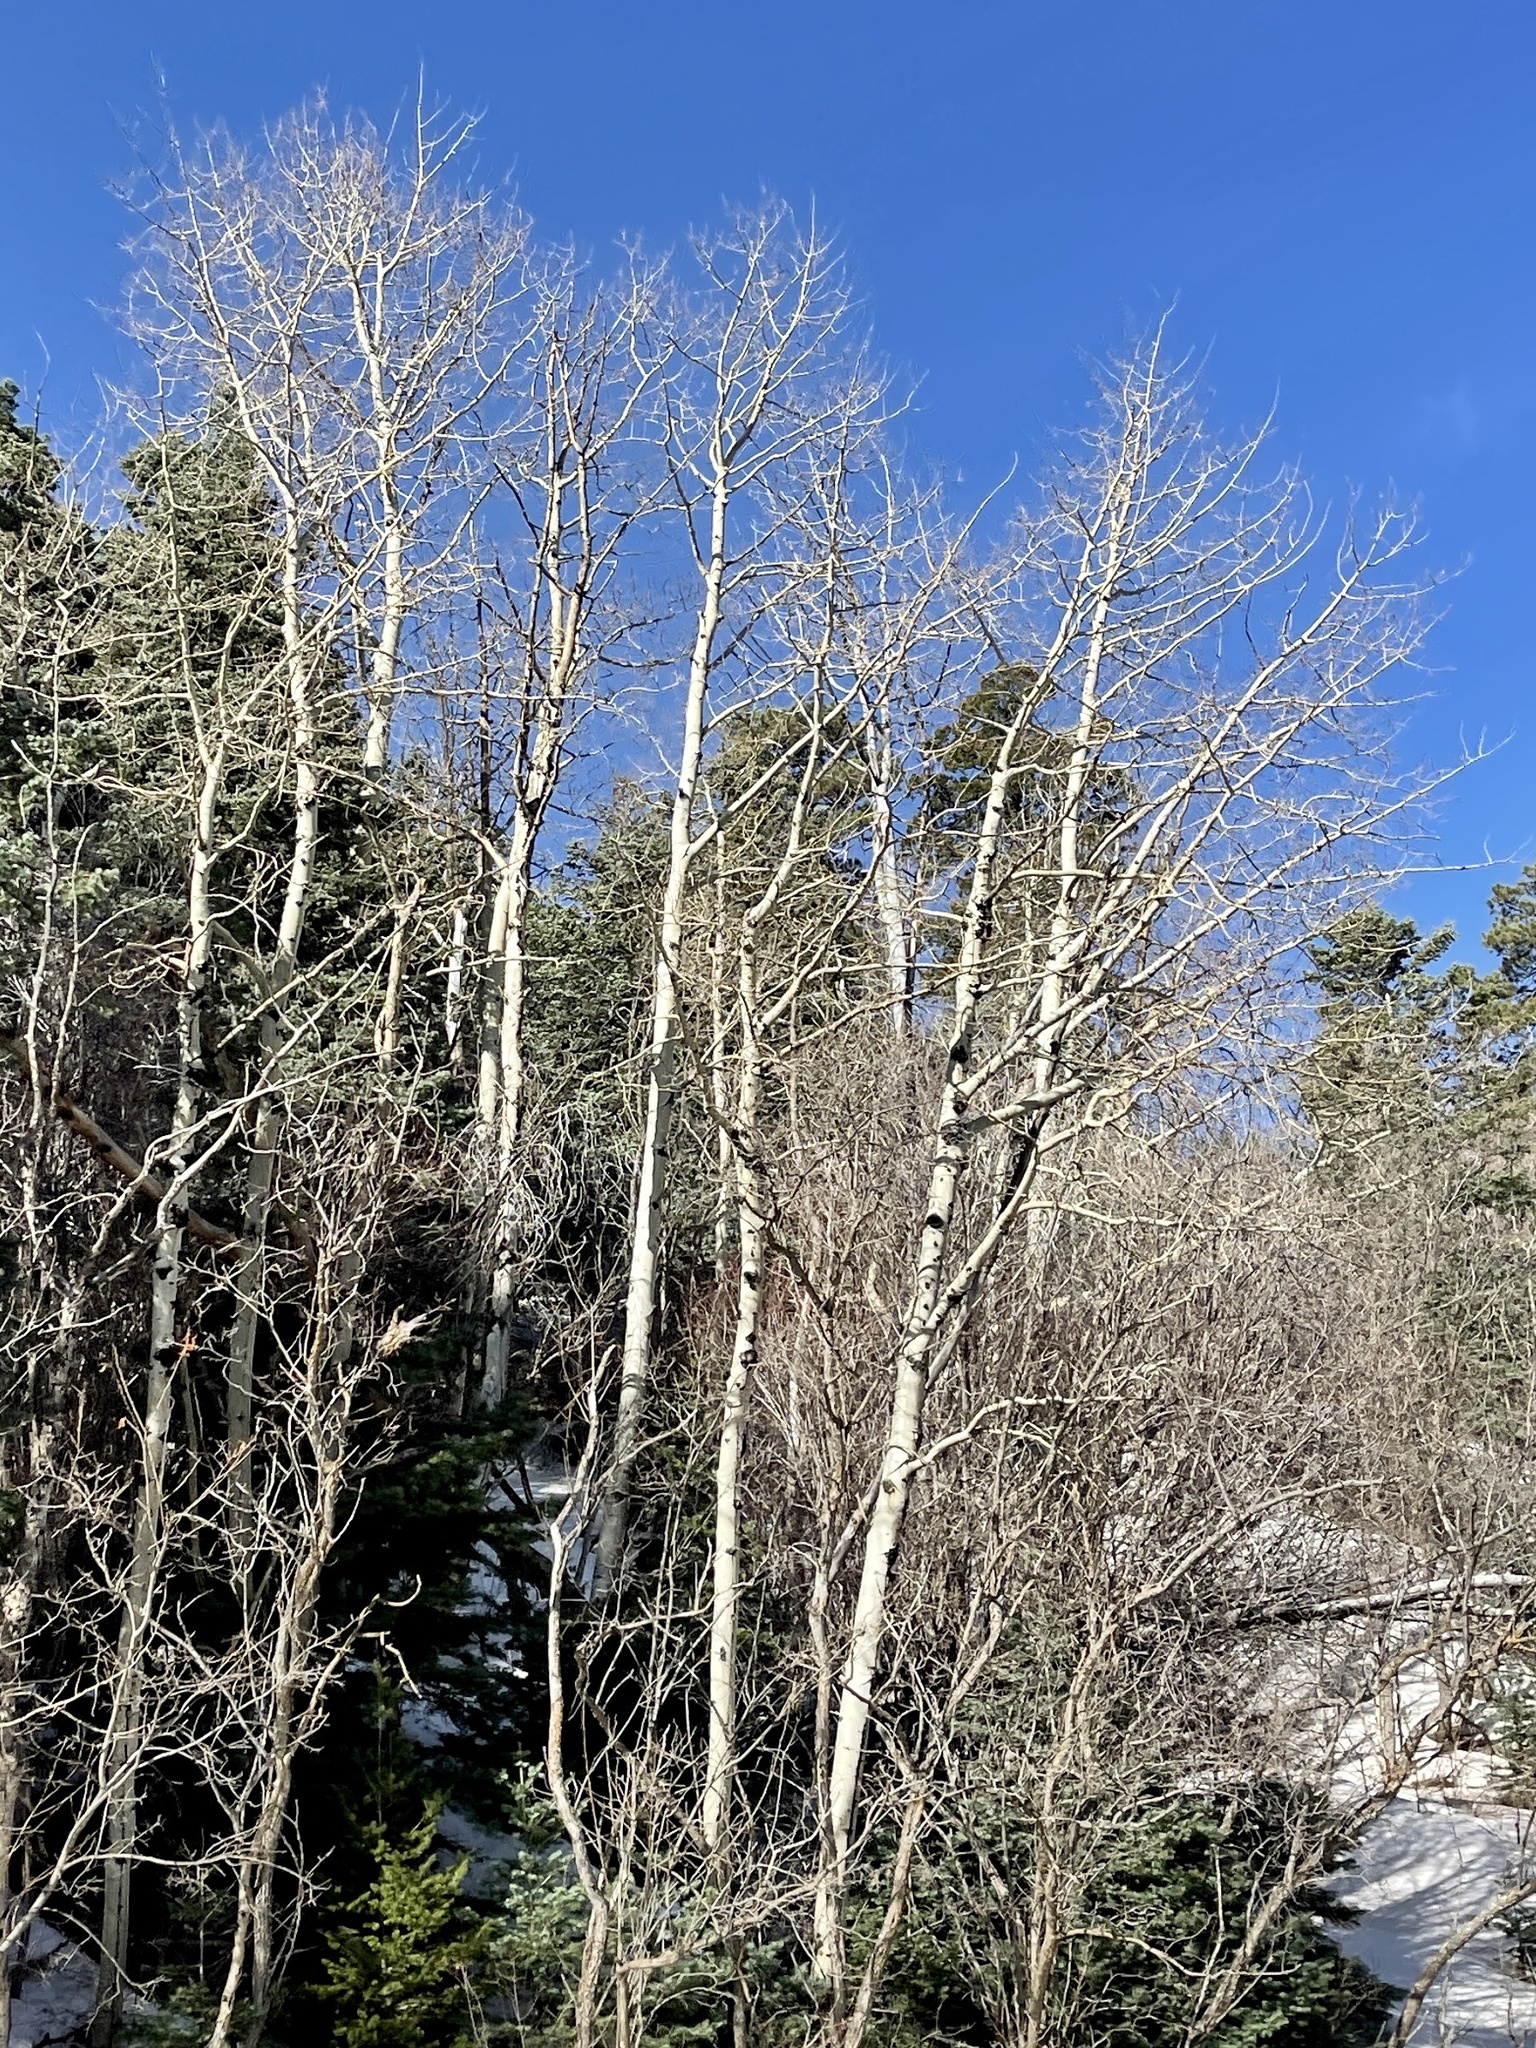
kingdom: Plantae
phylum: Tracheophyta
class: Magnoliopsida
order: Malpighiales
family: Salicaceae
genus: Populus
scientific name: Populus tremuloides
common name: Quaking aspen
